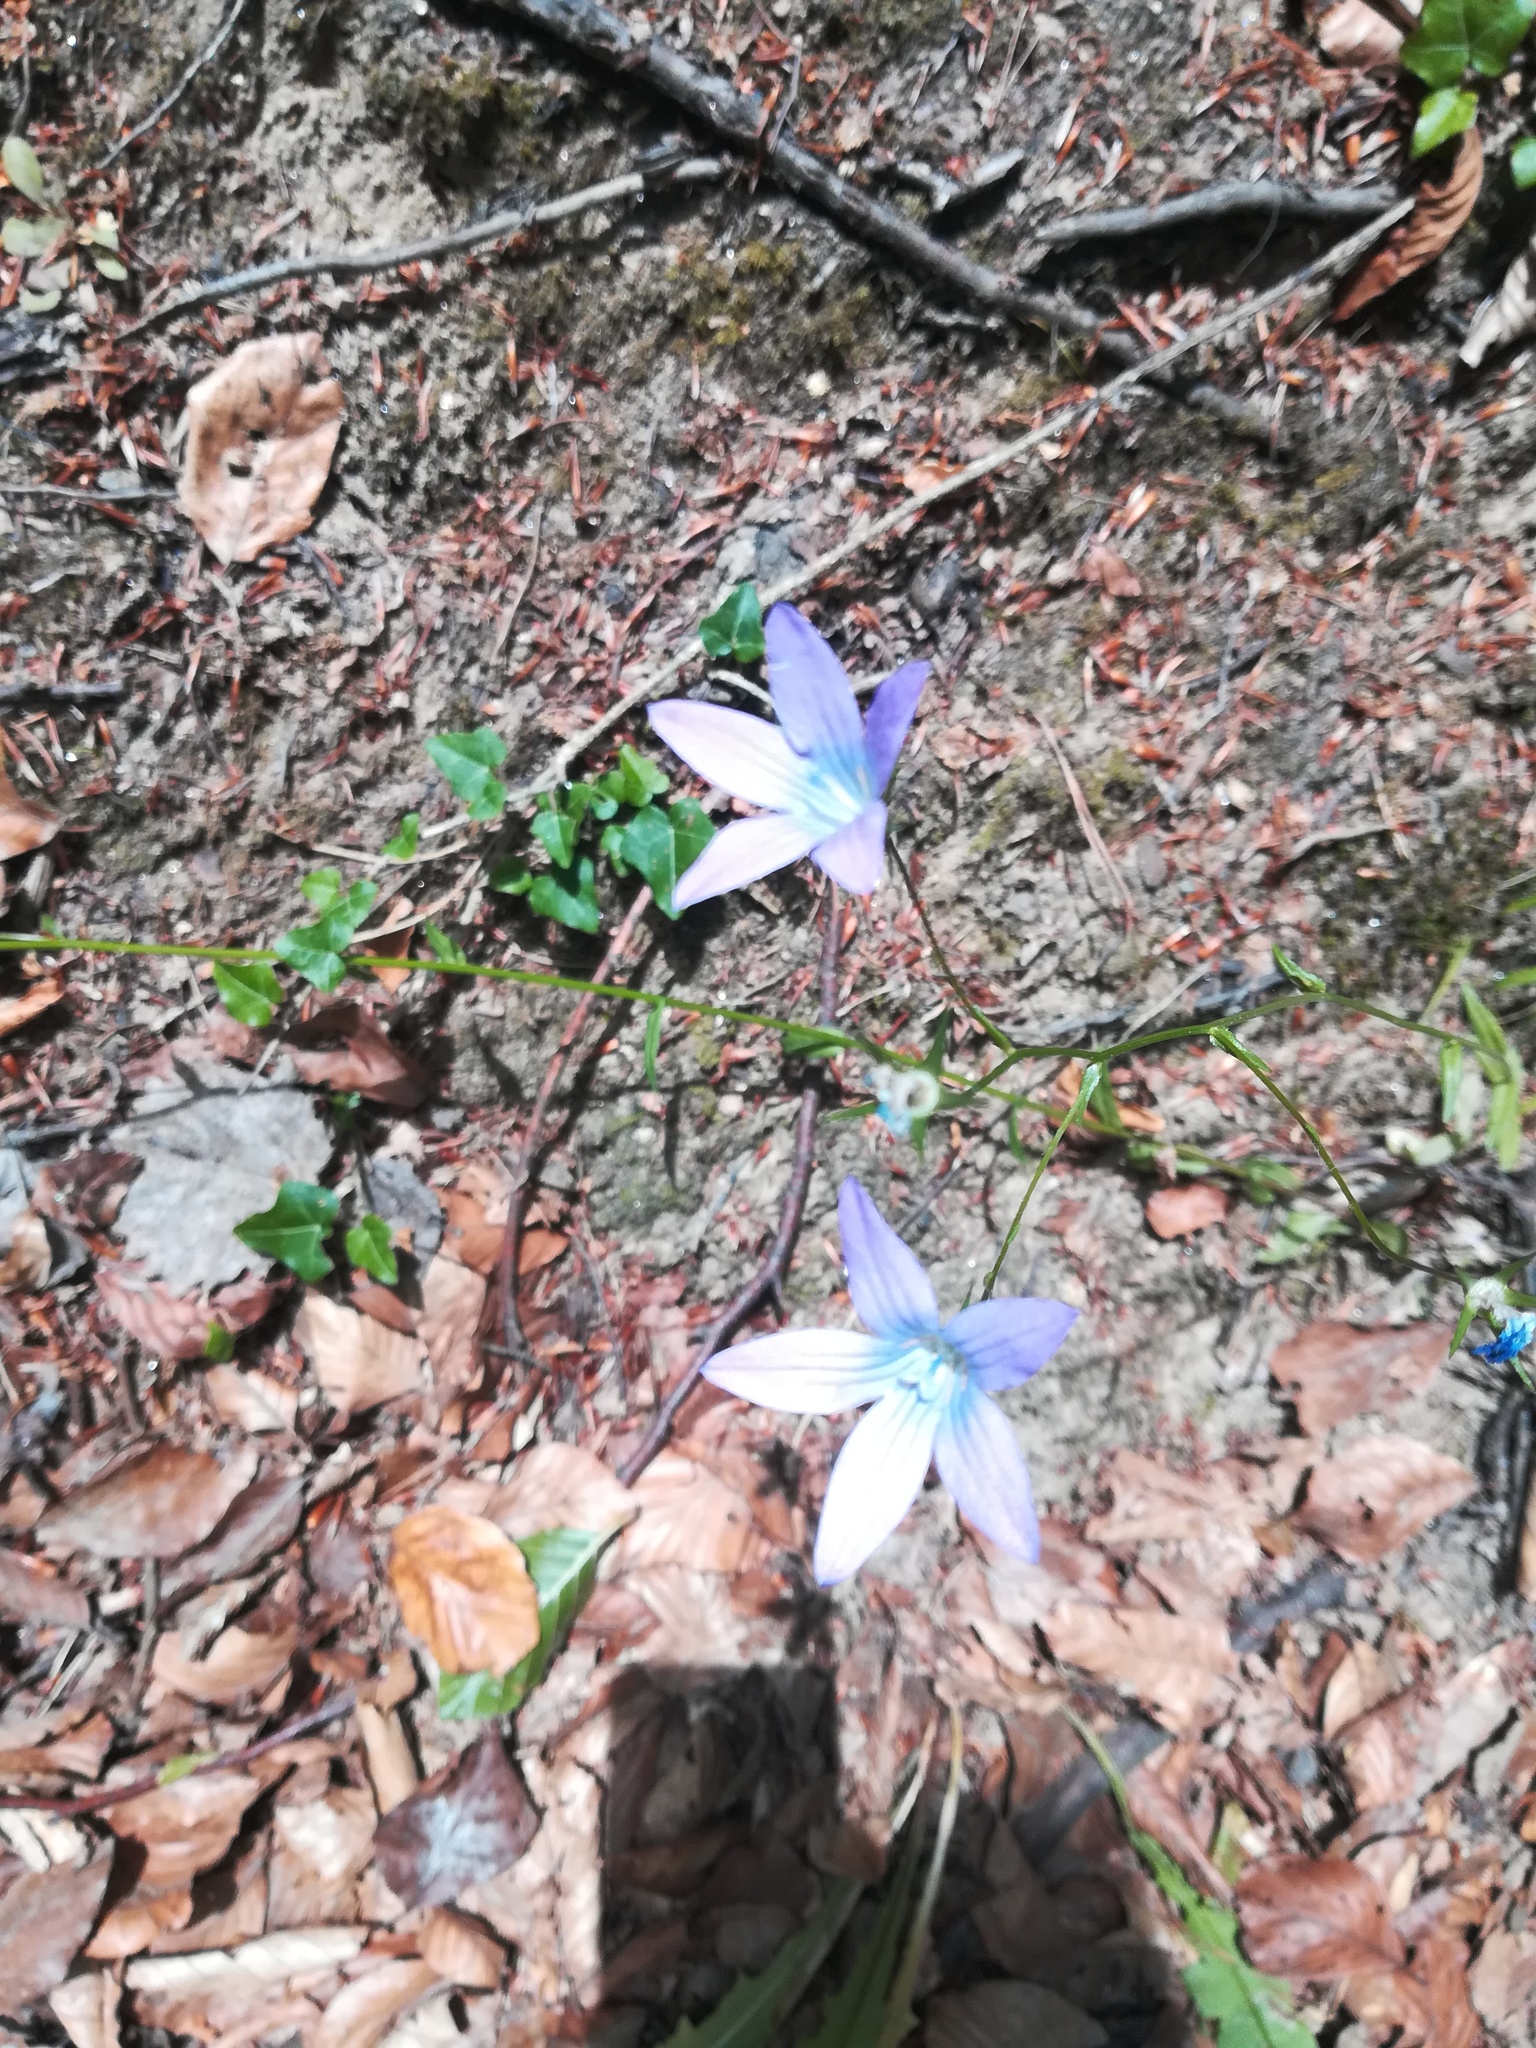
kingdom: Plantae
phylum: Tracheophyta
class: Magnoliopsida
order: Asterales
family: Campanulaceae
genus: Campanula
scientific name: Campanula patula
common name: Spreading bellflower
